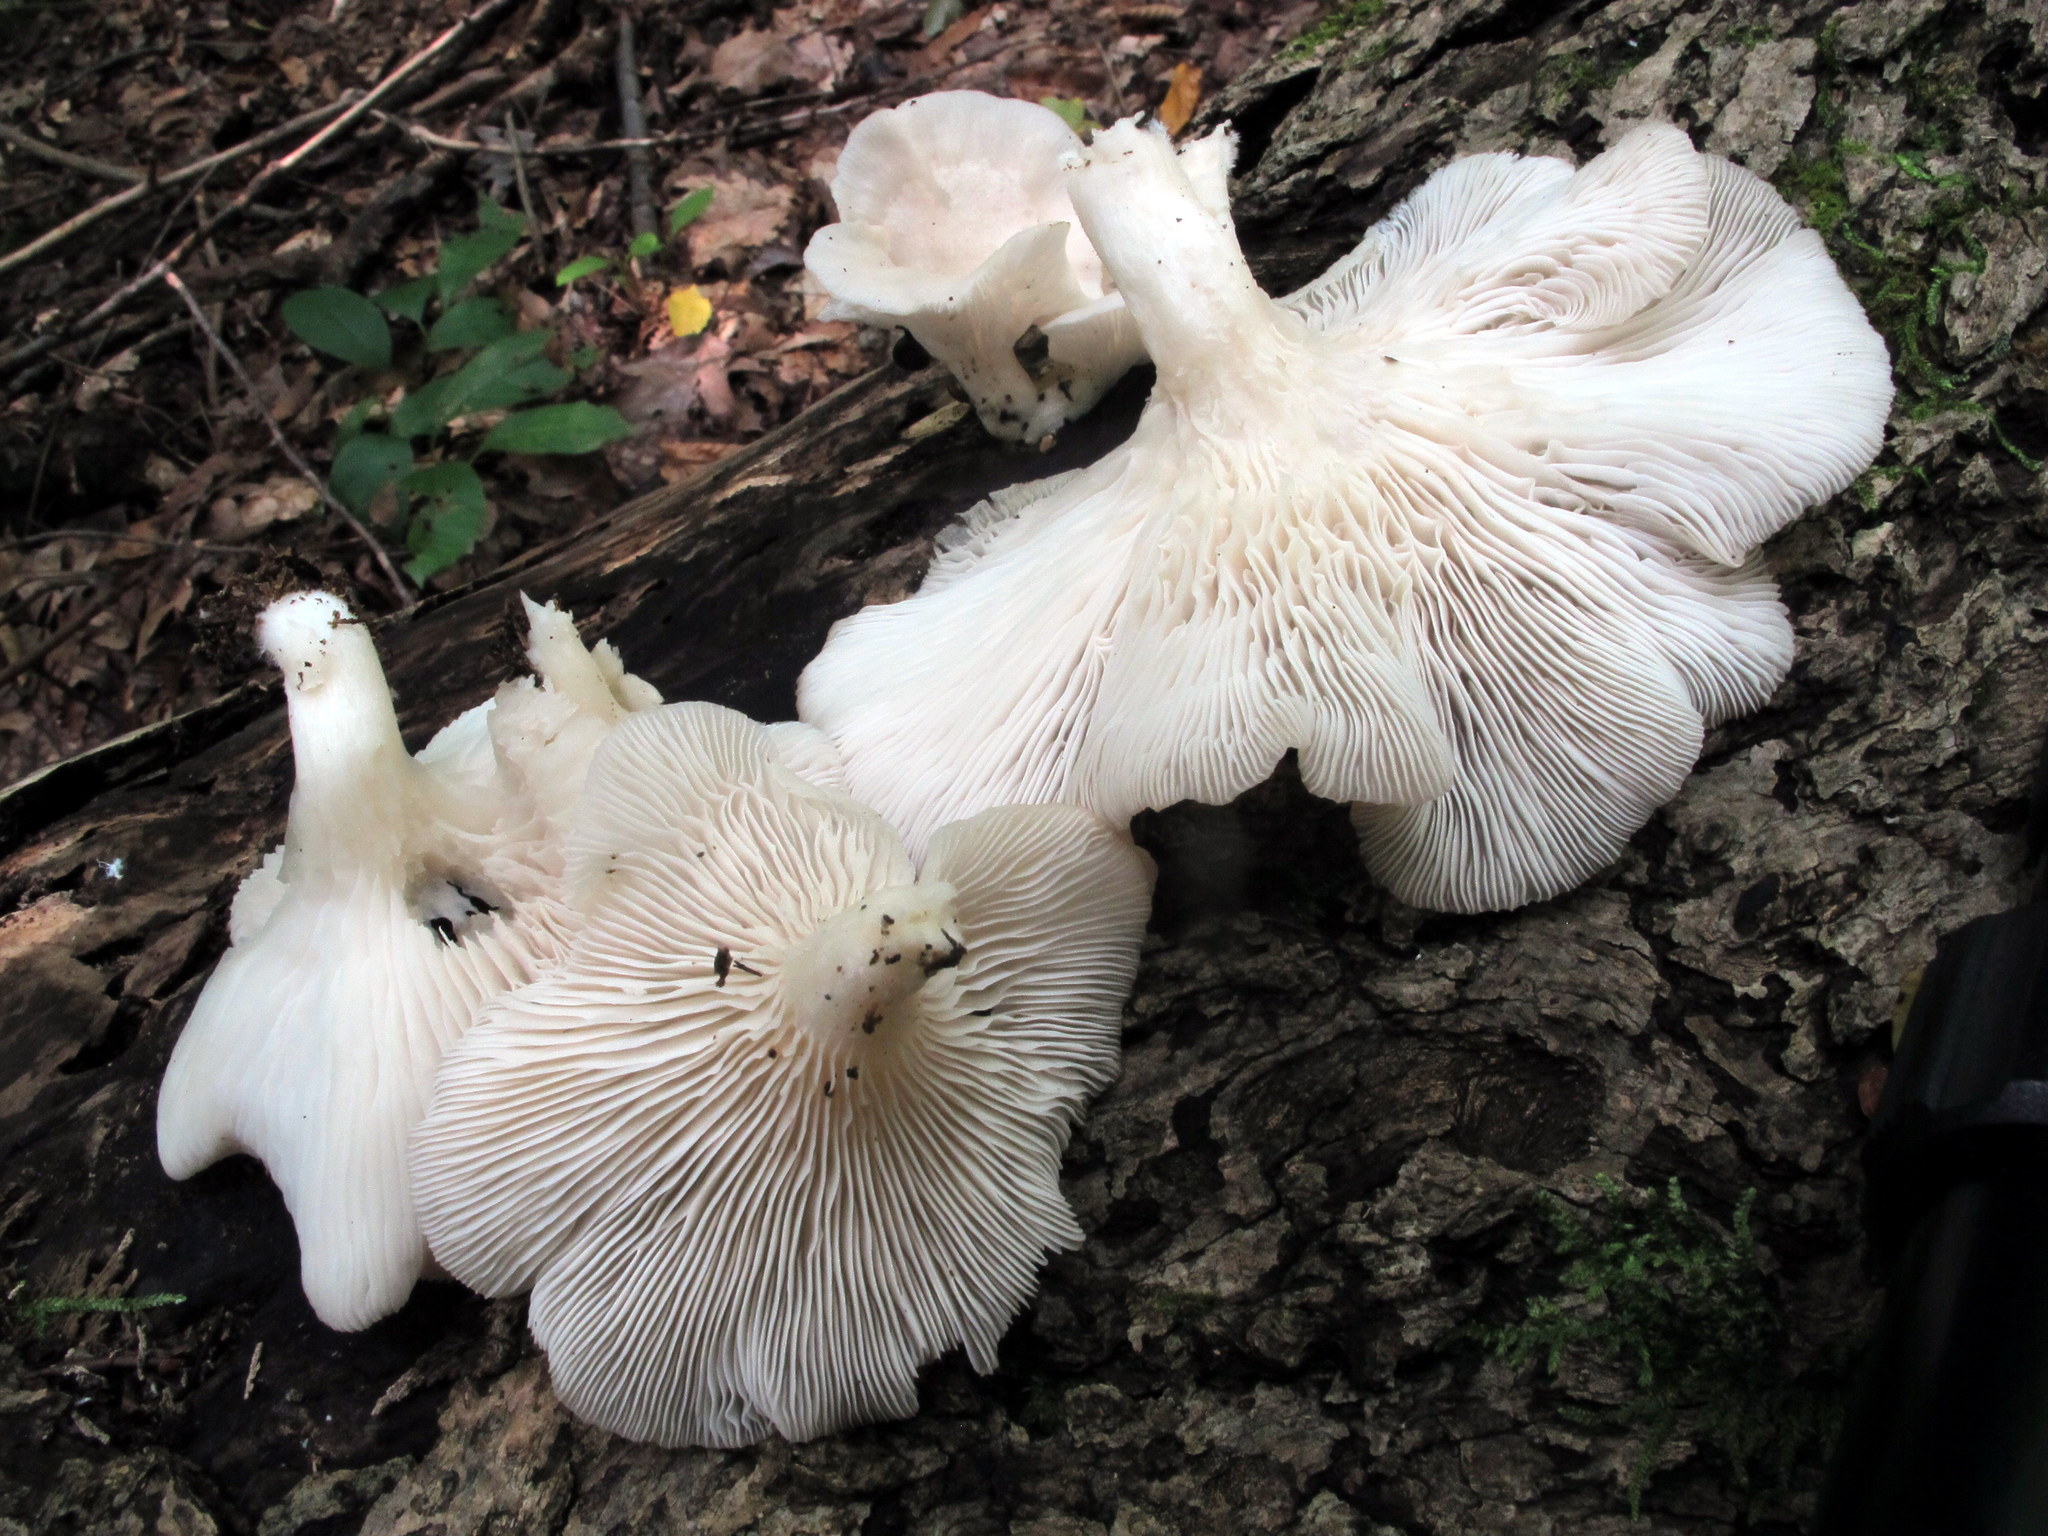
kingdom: Fungi
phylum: Basidiomycota
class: Agaricomycetes
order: Agaricales
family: Pleurotaceae
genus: Pleurotus
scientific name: Pleurotus pulmonarius
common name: Pale oyster
